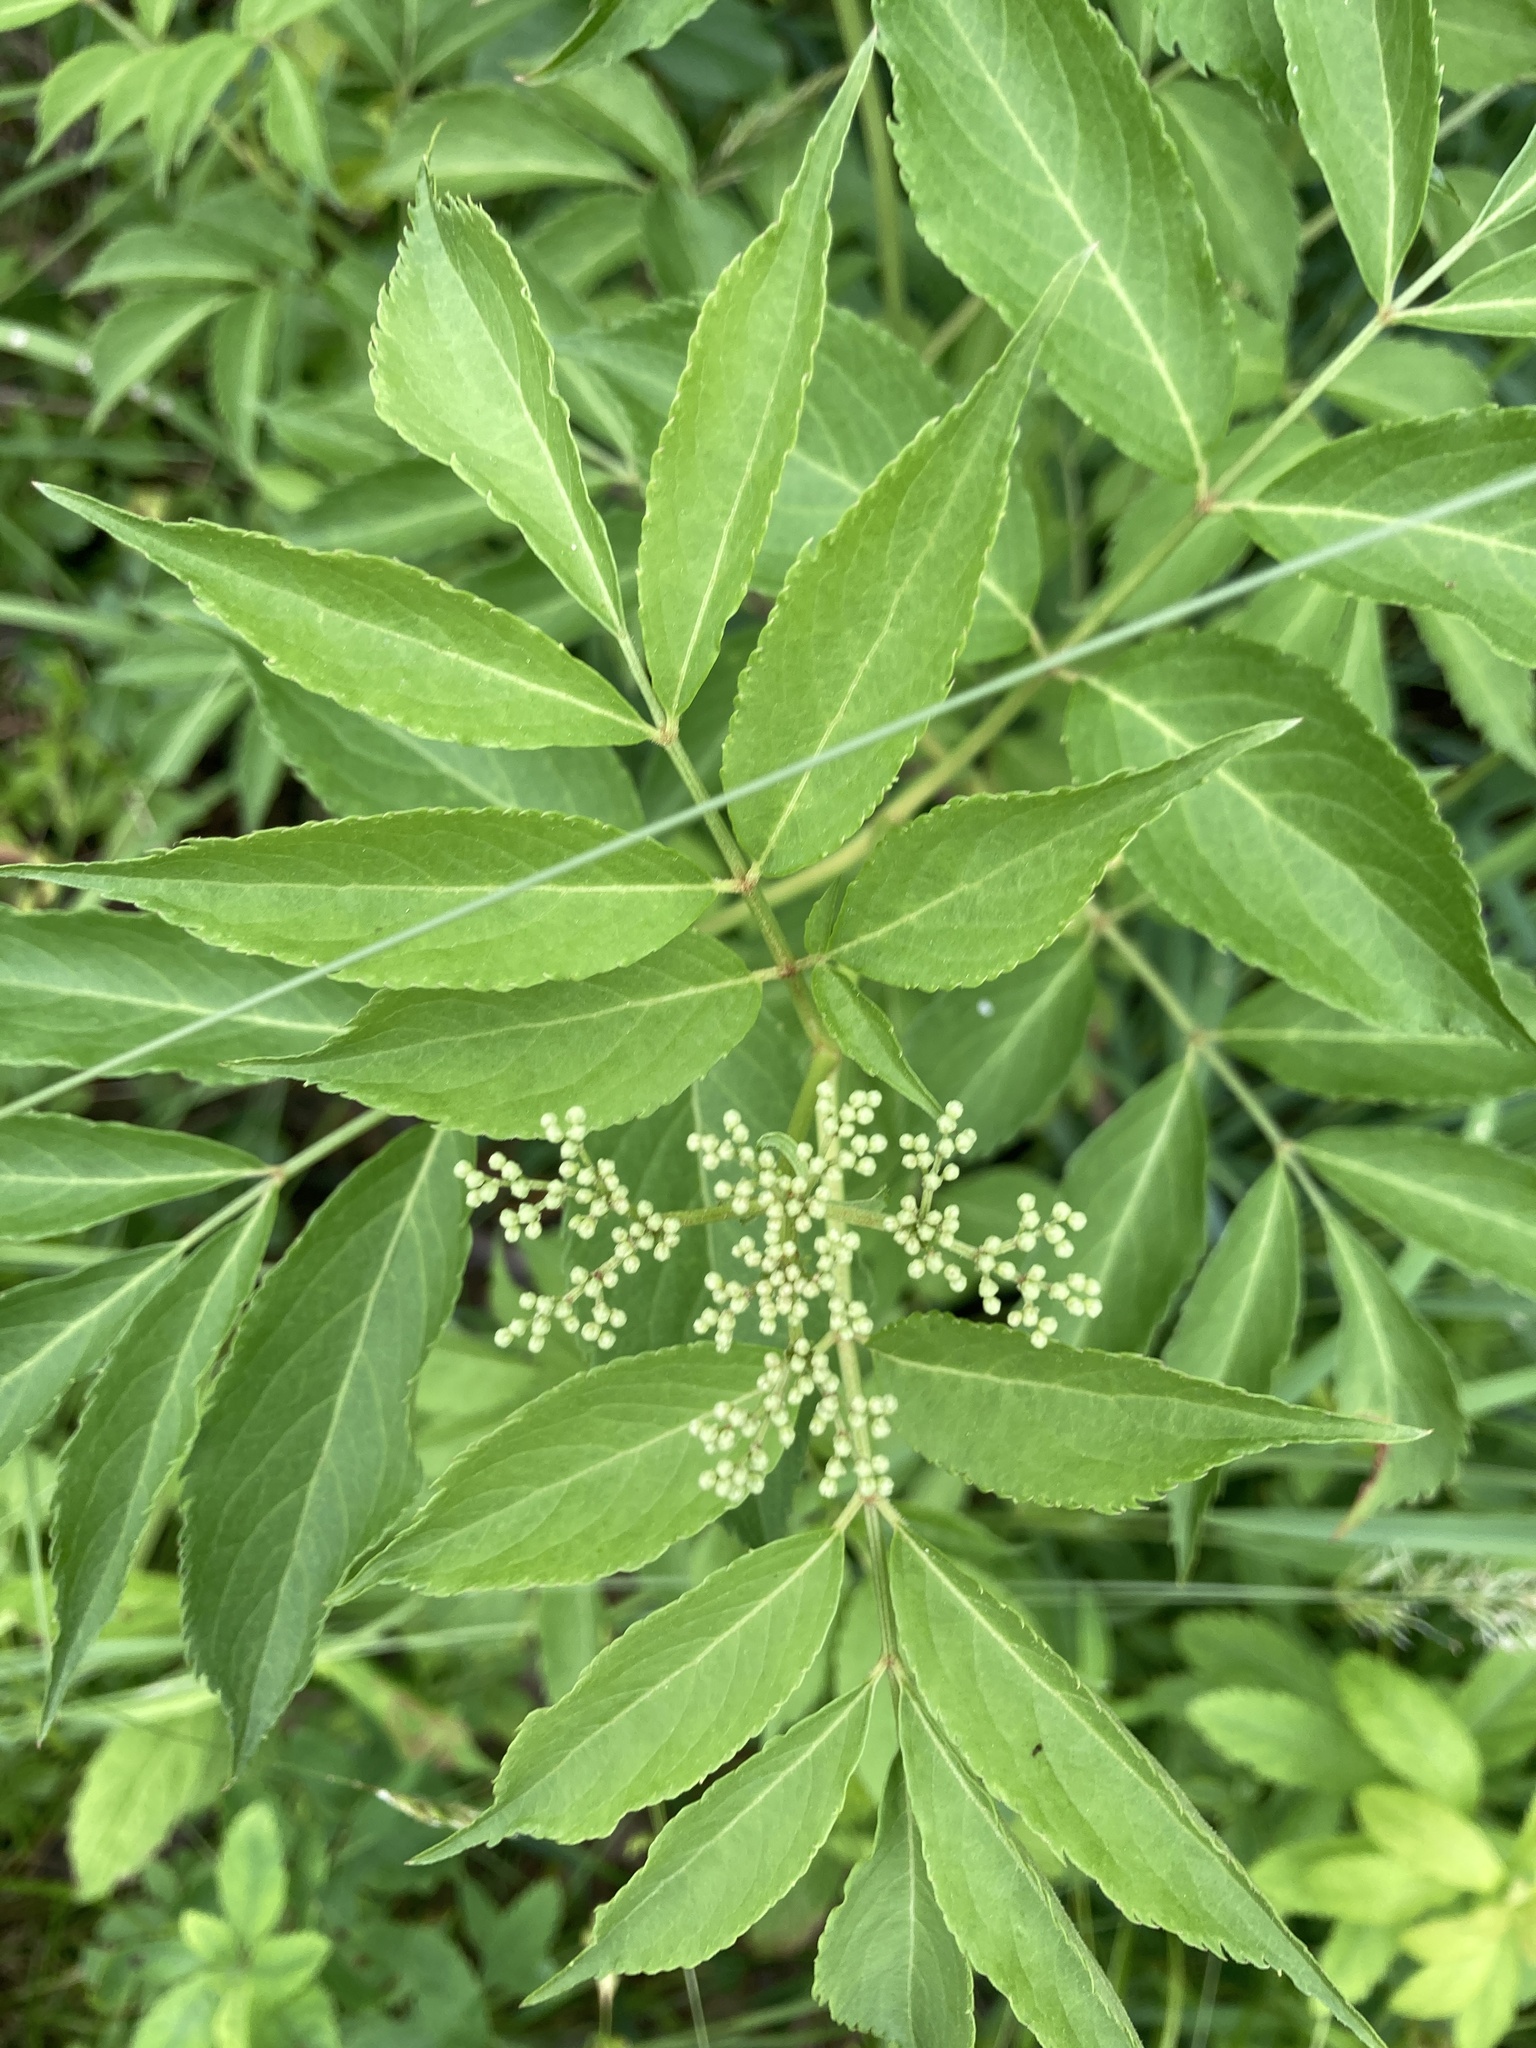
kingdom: Plantae
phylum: Tracheophyta
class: Magnoliopsida
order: Dipsacales
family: Viburnaceae
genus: Sambucus
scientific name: Sambucus canadensis
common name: American elder
